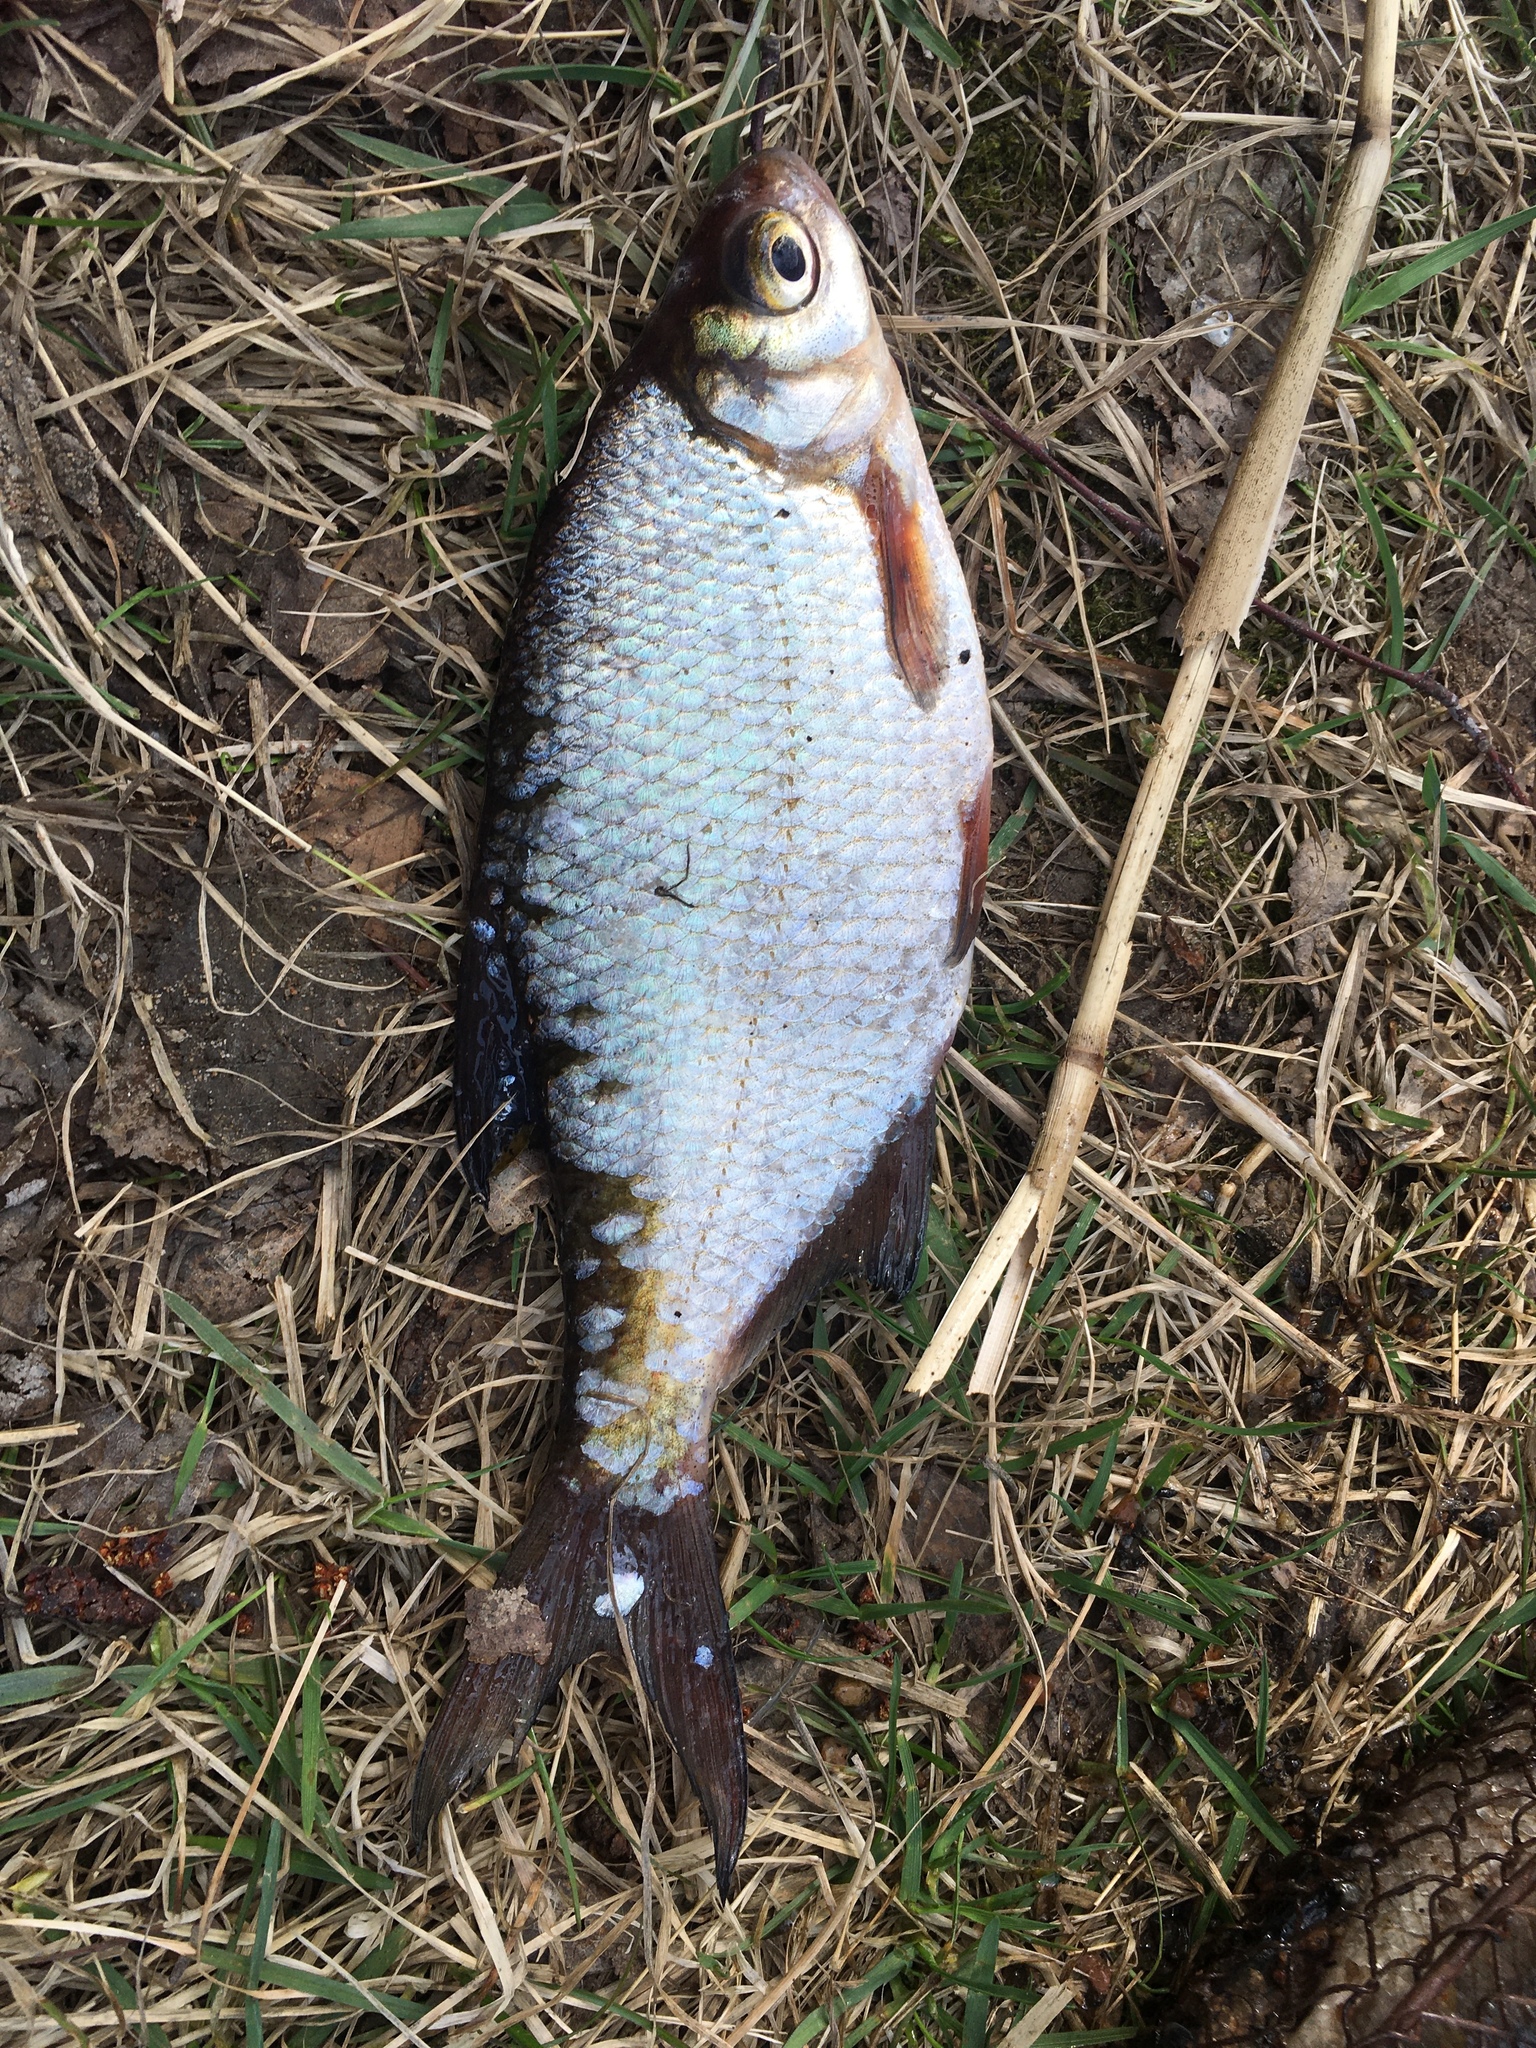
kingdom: Animalia
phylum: Chordata
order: Cypriniformes
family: Cyprinidae
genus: Blicca
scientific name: Blicca bjoerkna
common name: White bream
